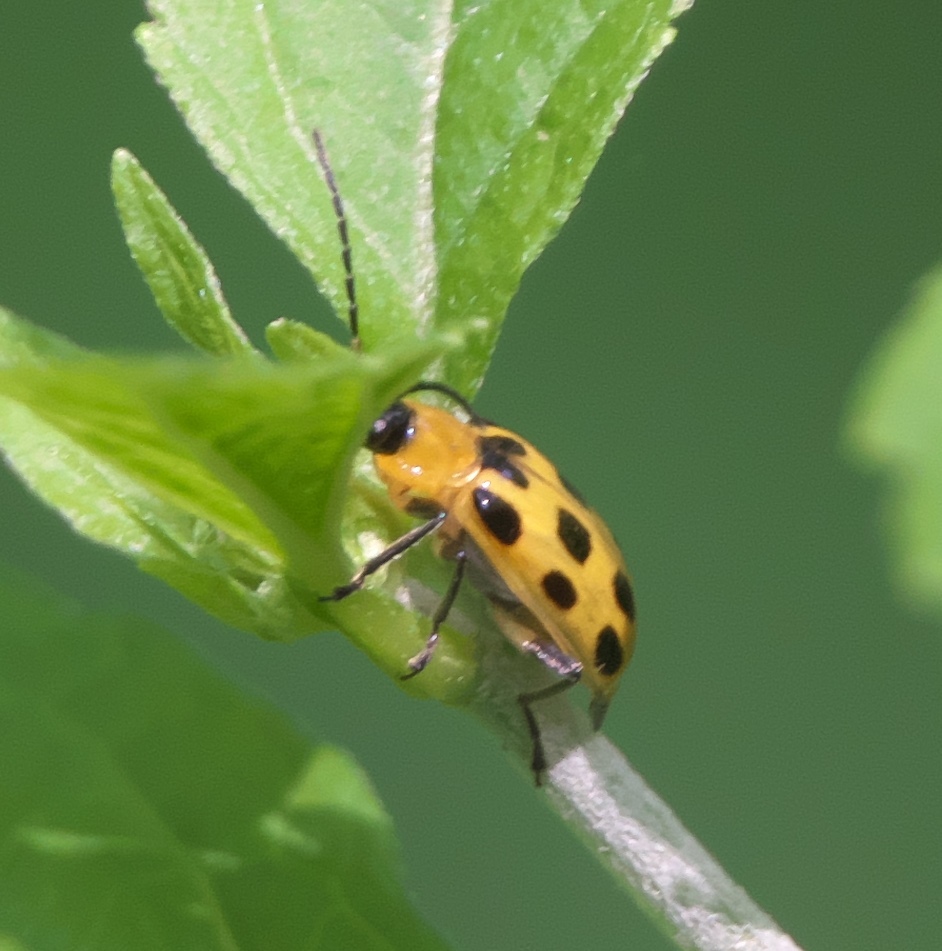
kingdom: Animalia
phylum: Arthropoda
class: Insecta
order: Coleoptera
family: Chrysomelidae
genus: Diabrotica
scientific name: Diabrotica undecimpunctata
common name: Spotted cucumber beetle
